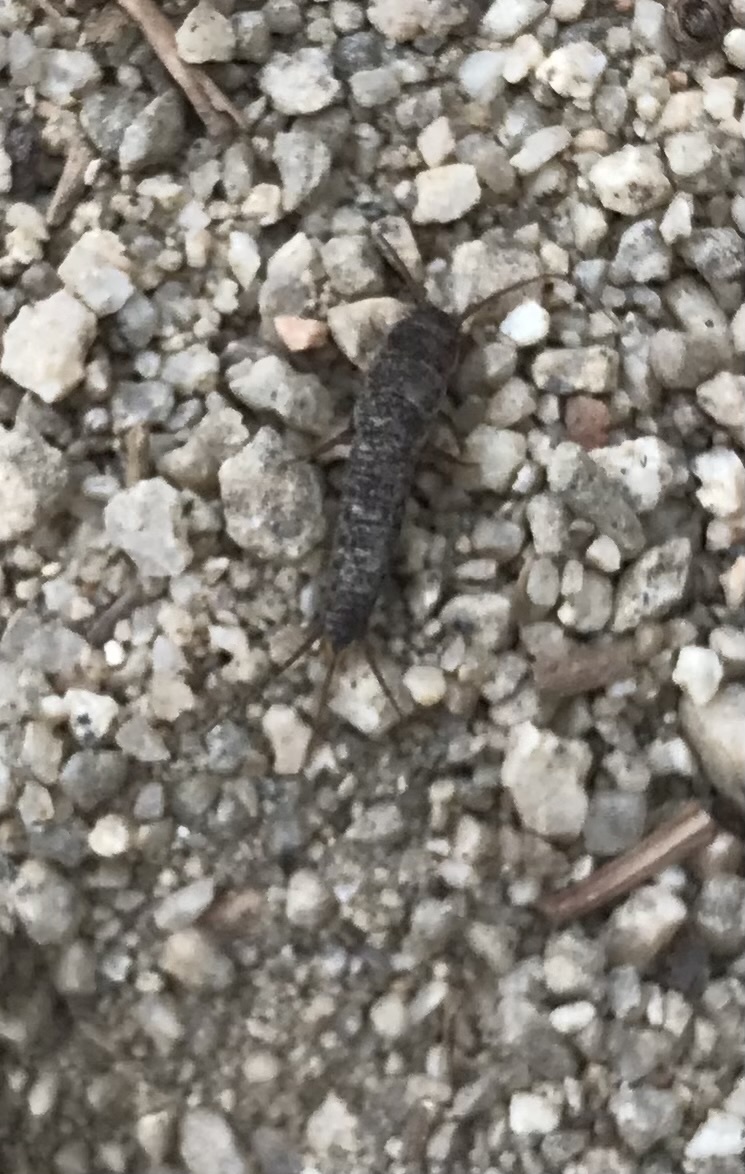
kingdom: Animalia
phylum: Arthropoda
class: Insecta
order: Zygentoma
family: Lepismatidae
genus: Allacrotelsa
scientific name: Allacrotelsa spinulata
